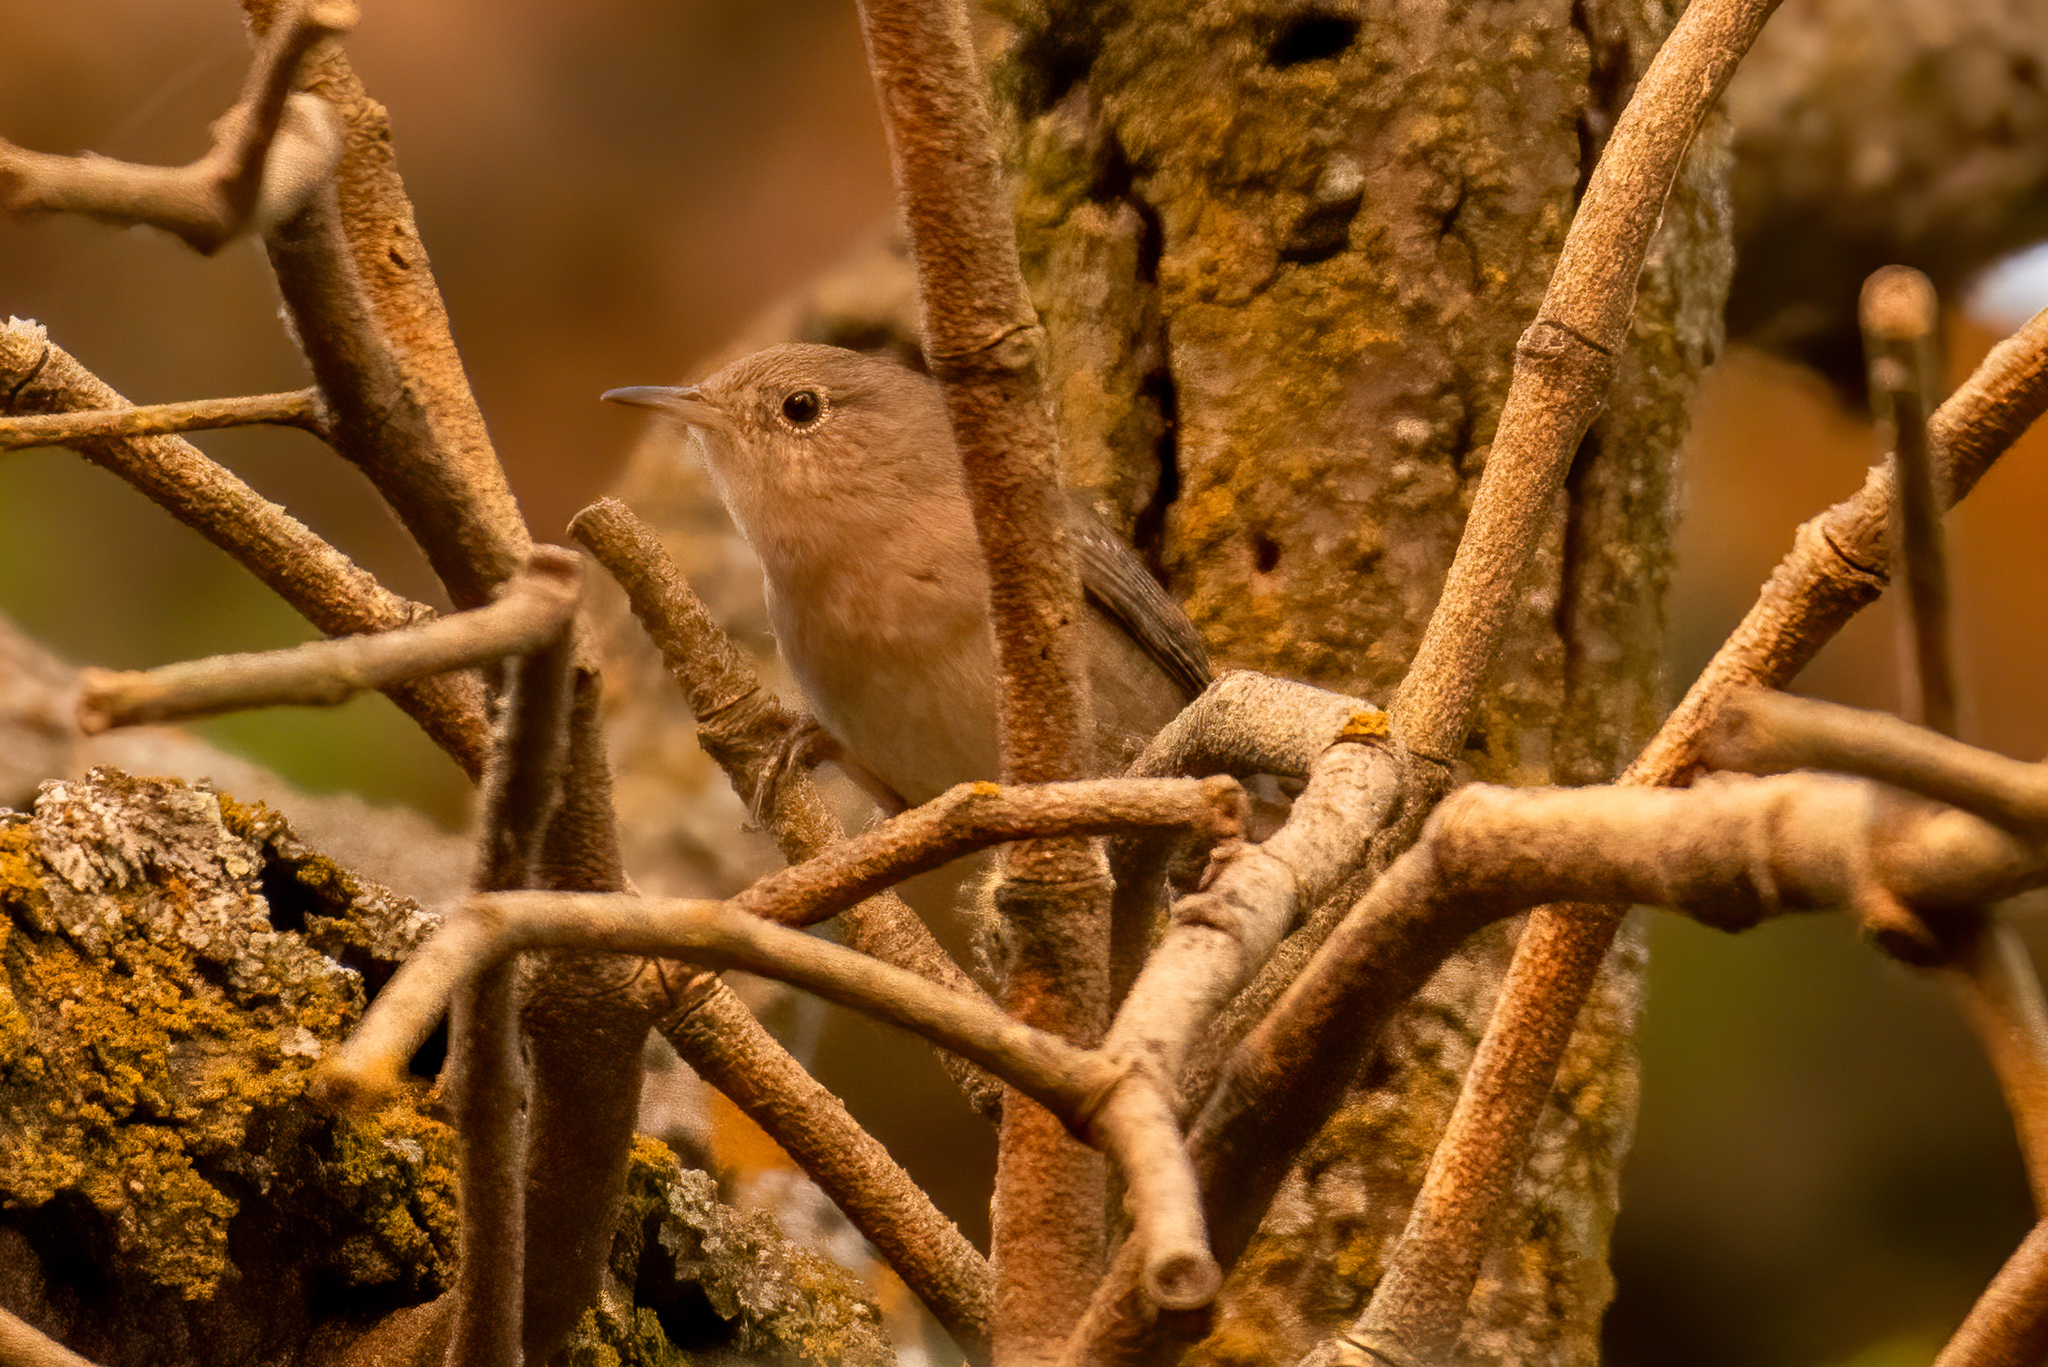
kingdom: Animalia
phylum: Chordata
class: Aves
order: Passeriformes
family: Troglodytidae
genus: Troglodytes
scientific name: Troglodytes aedon
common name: House wren
